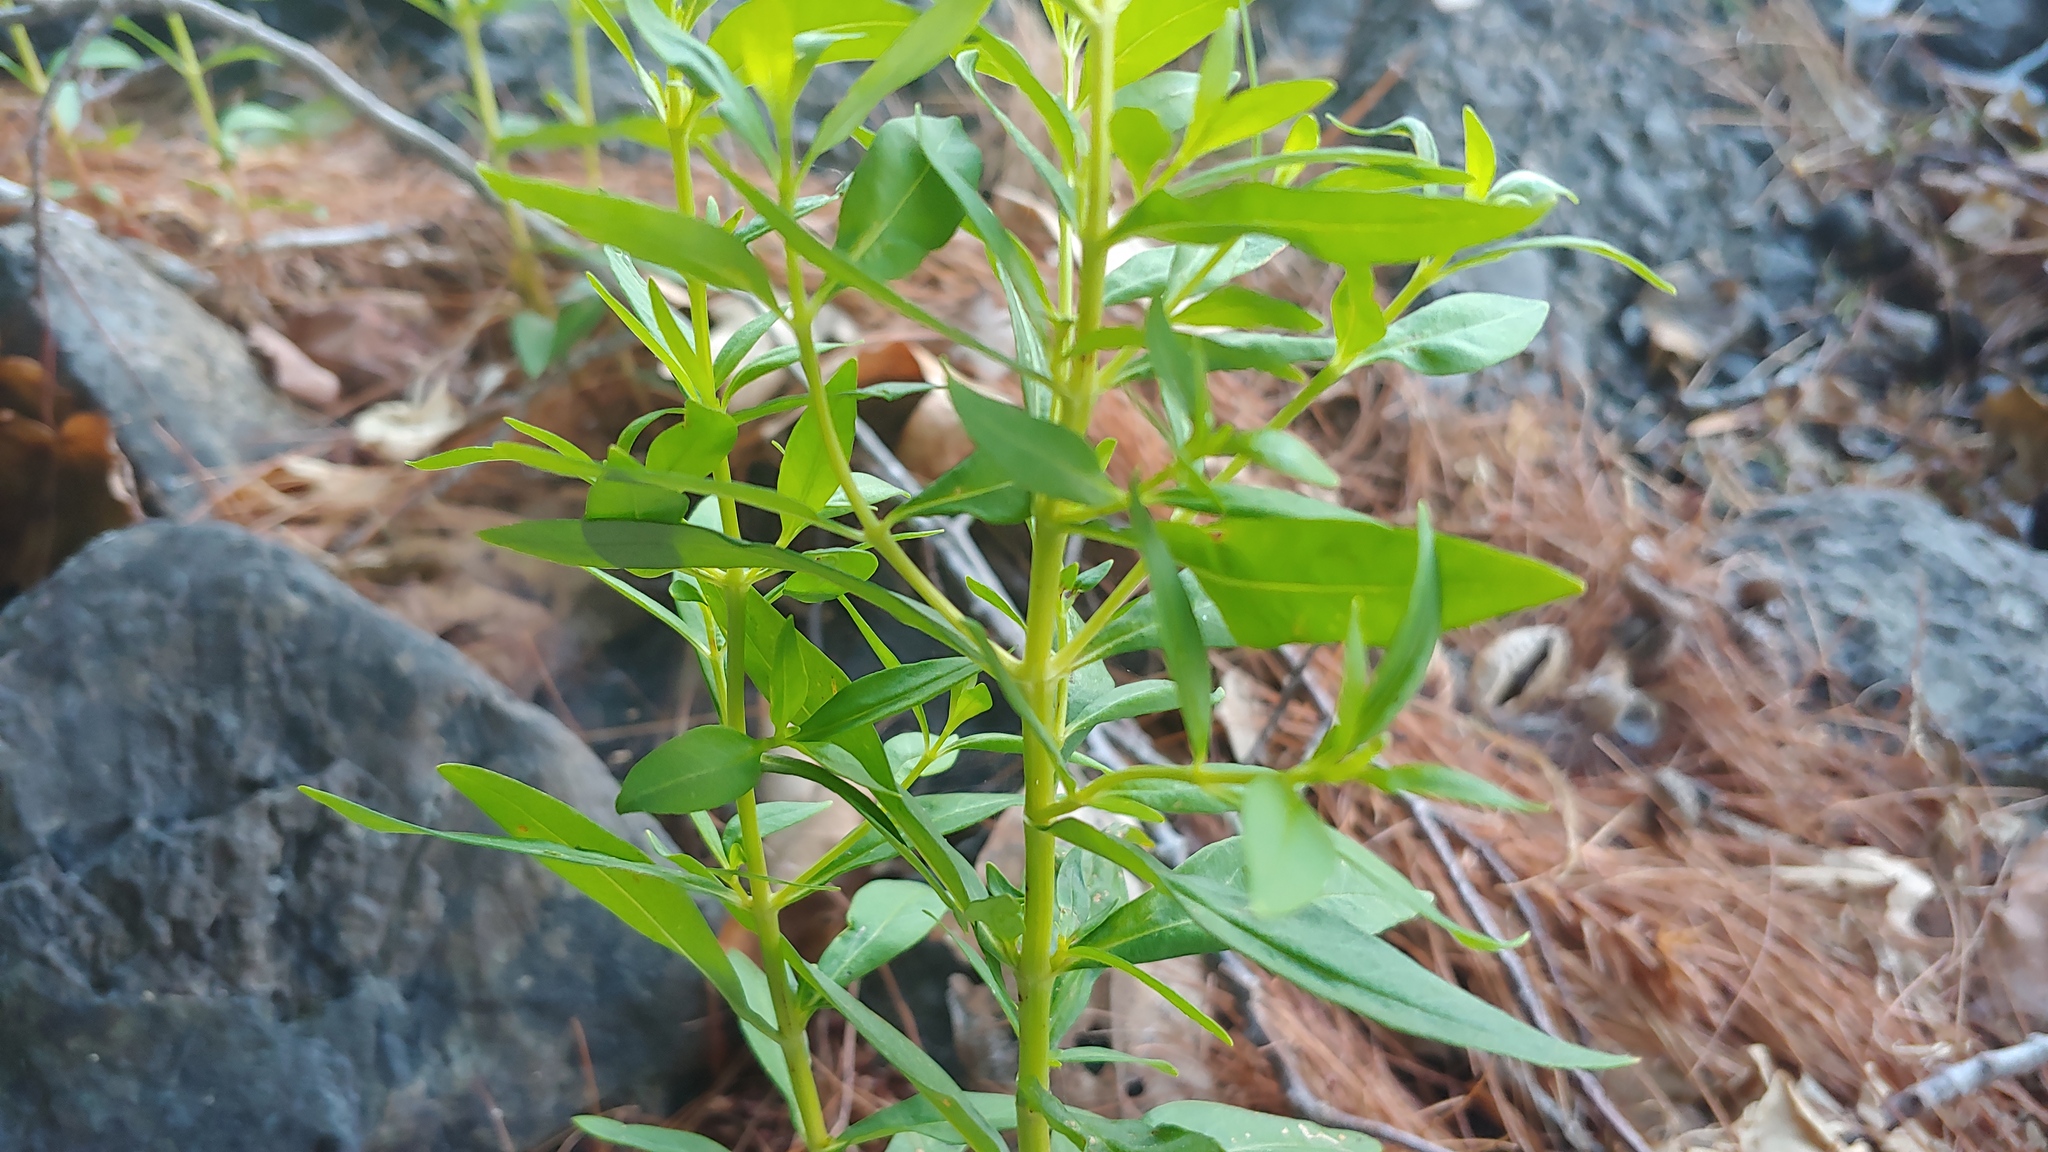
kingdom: Plantae
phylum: Tracheophyta
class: Magnoliopsida
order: Ericales
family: Primulaceae
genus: Lysimachia
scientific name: Lysimachia terrestris
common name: Lake loosestrife
